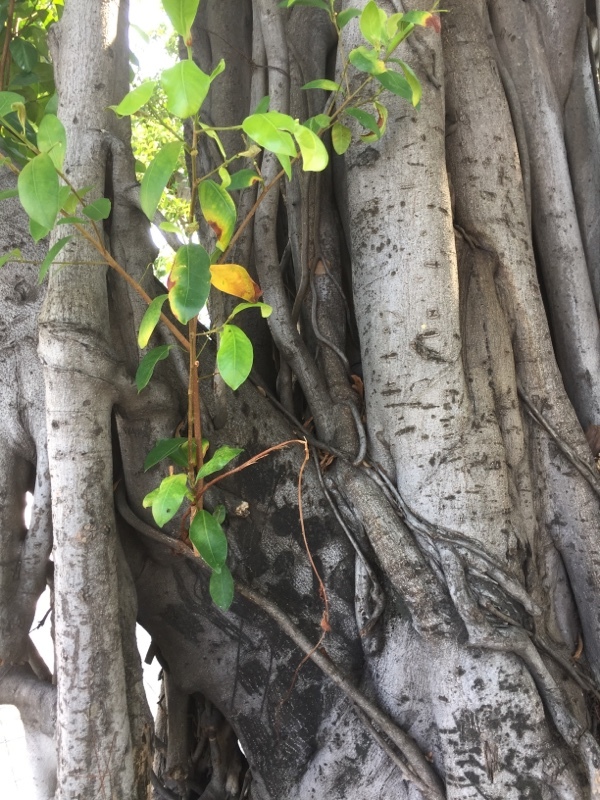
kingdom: Plantae
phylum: Tracheophyta
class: Magnoliopsida
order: Rosales
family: Moraceae
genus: Ficus
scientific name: Ficus benjamina
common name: Weeping fig
